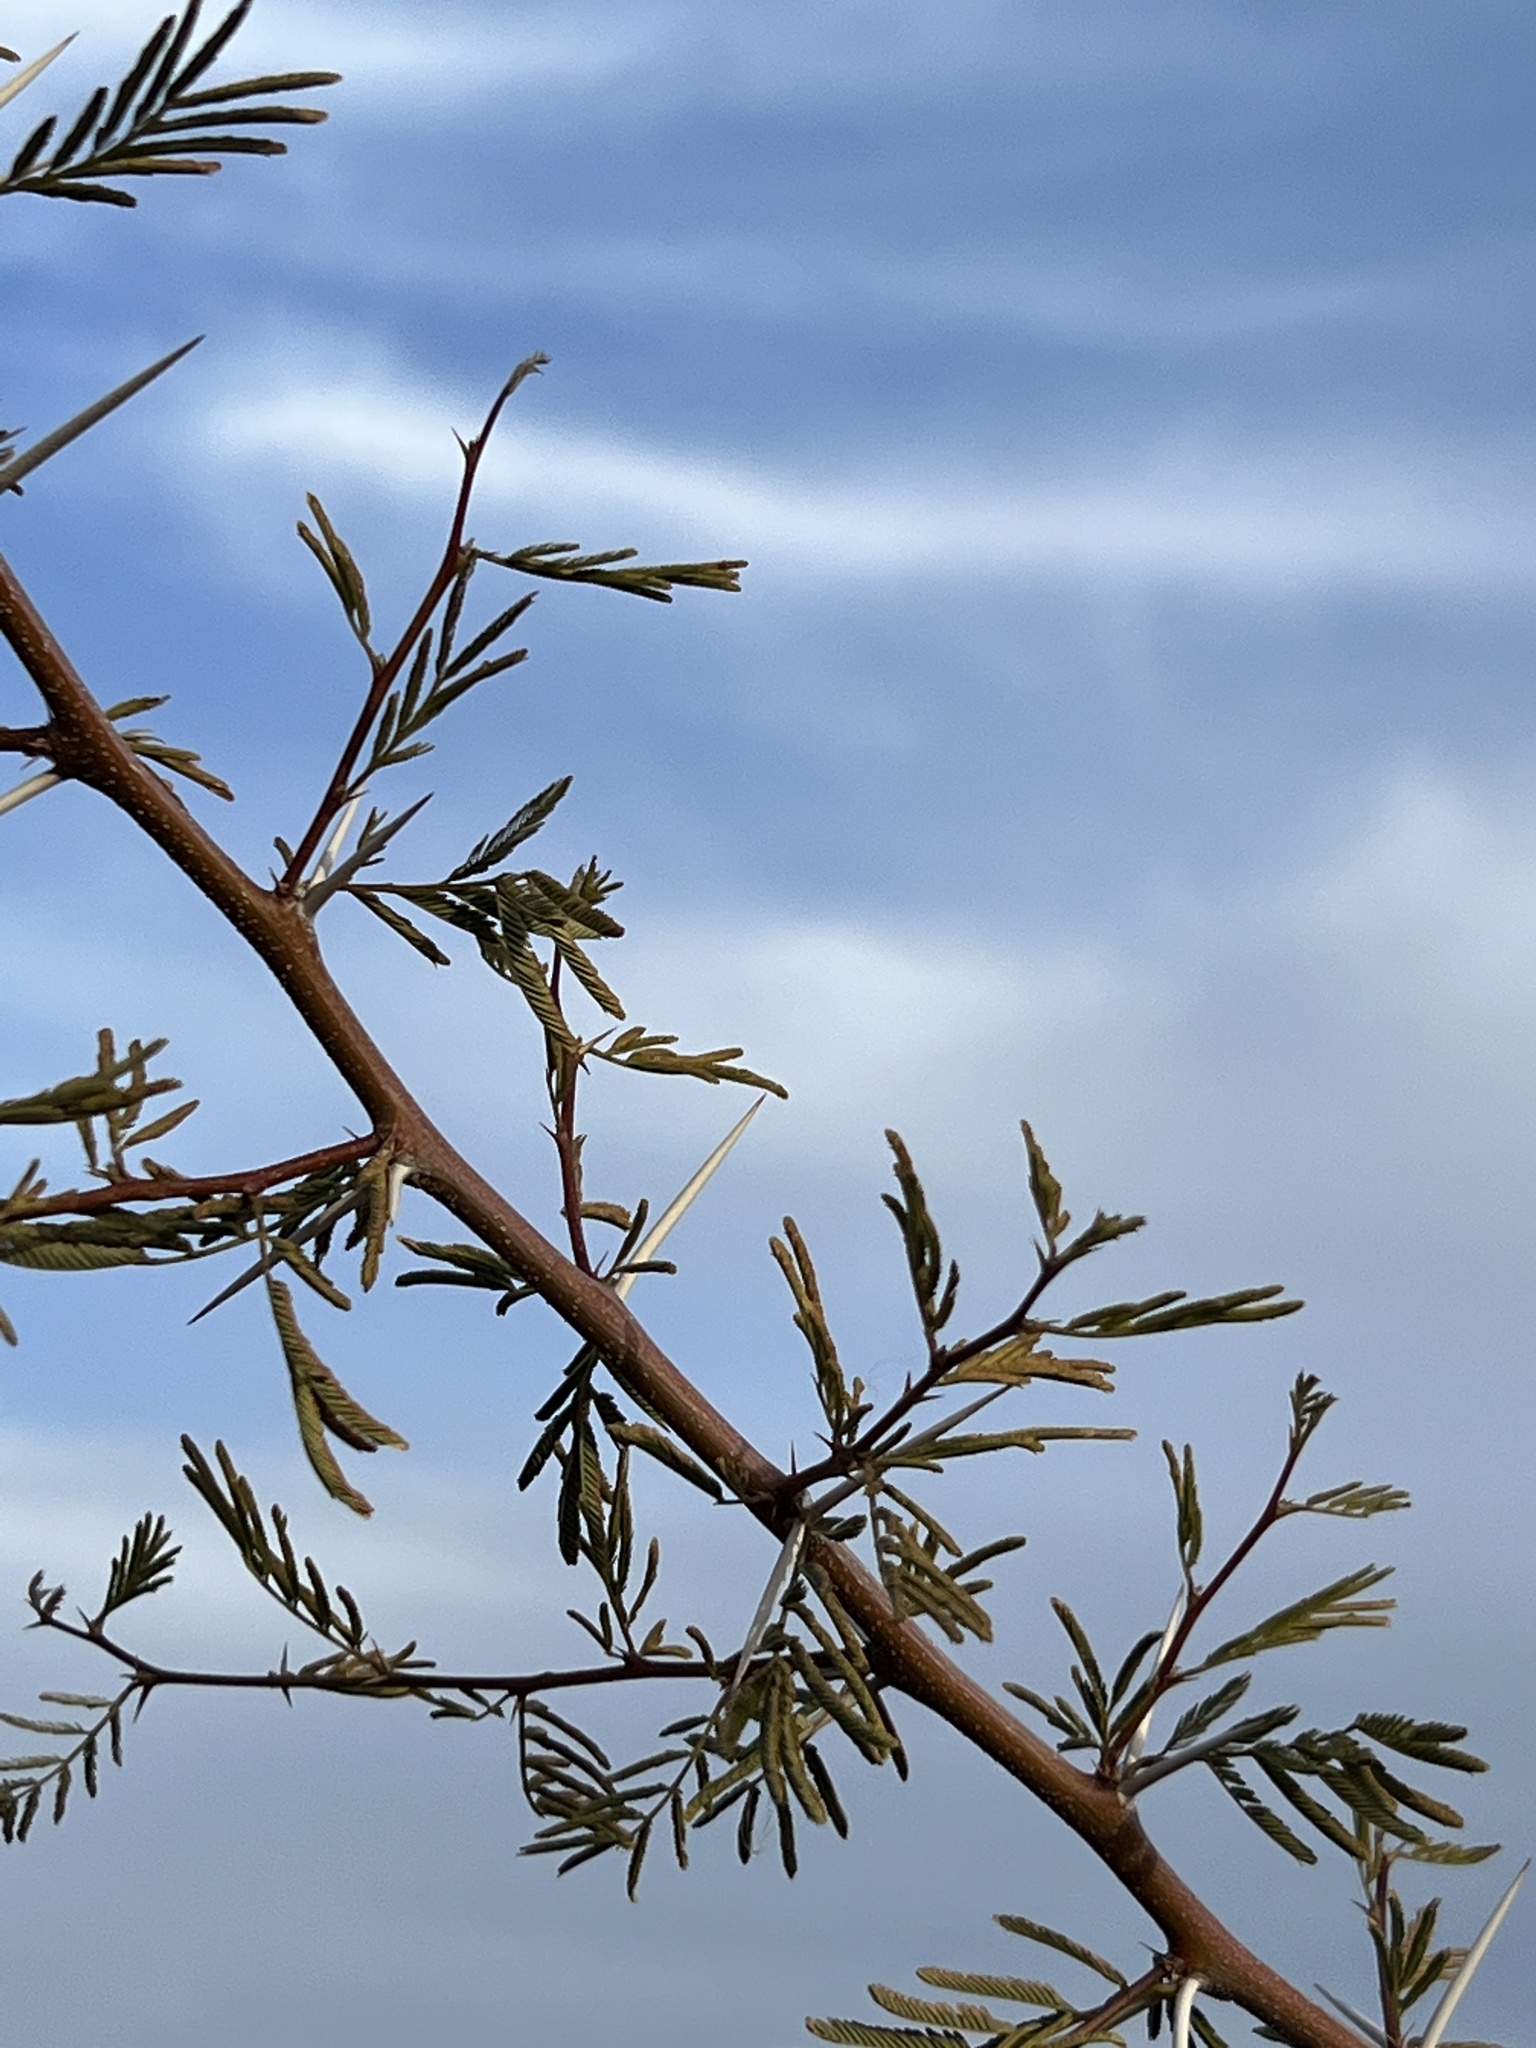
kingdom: Plantae
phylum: Tracheophyta
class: Magnoliopsida
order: Fabales
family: Fabaceae
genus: Vachellia
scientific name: Vachellia constricta
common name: Mescat acacia
